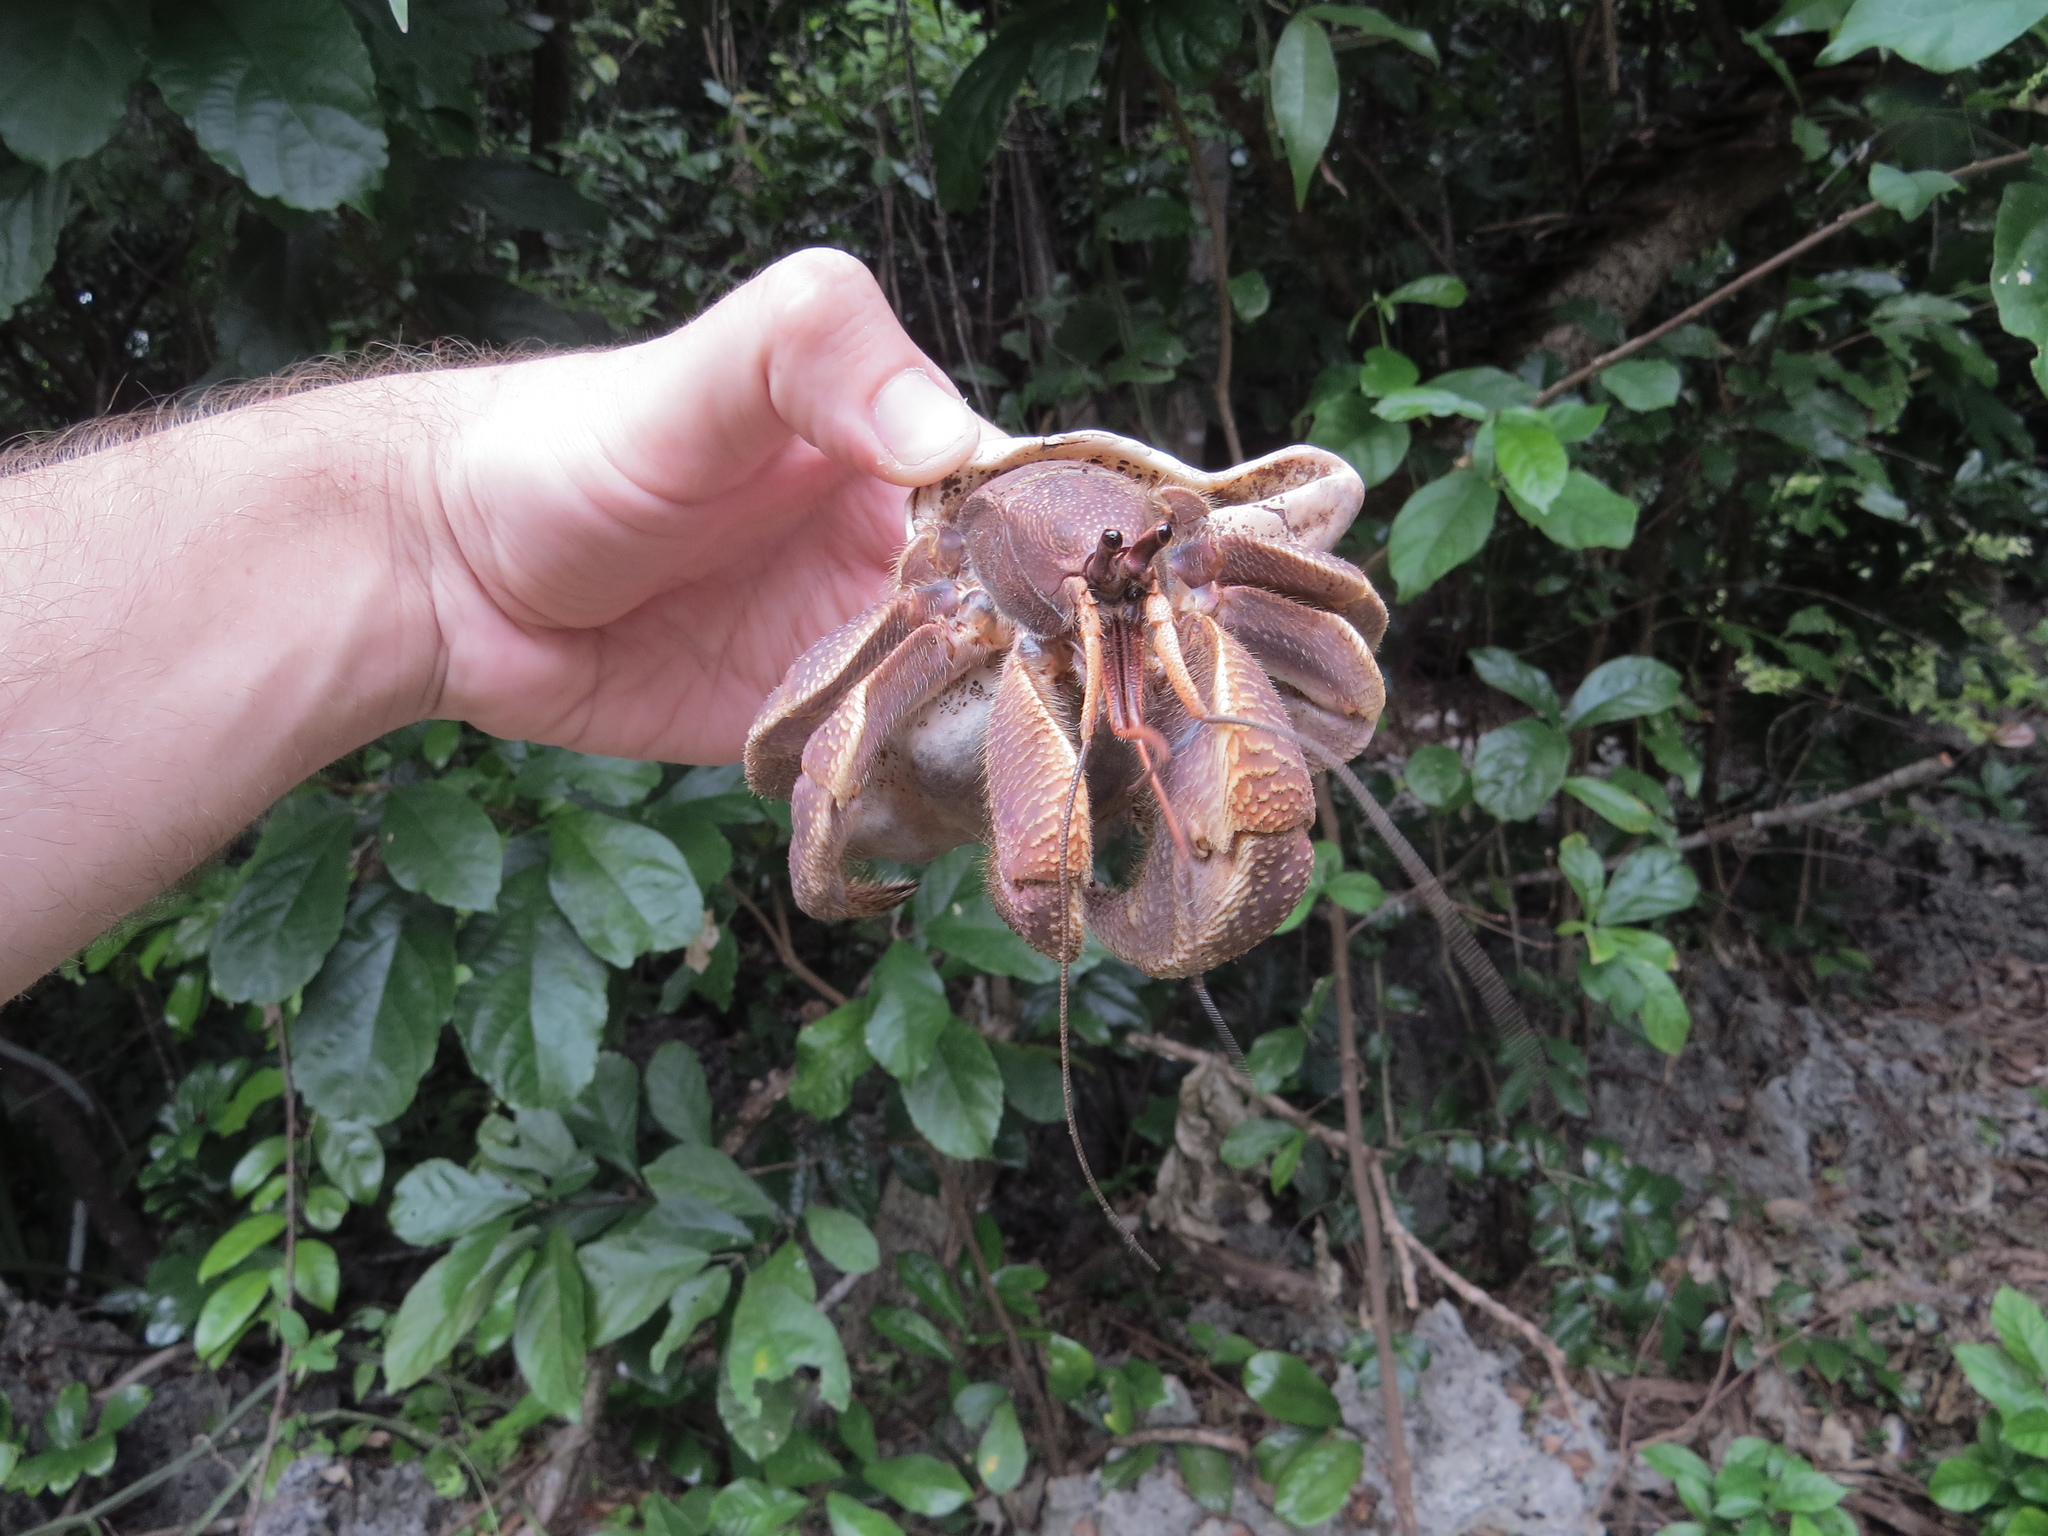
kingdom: Animalia
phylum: Arthropoda
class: Malacostraca
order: Decapoda
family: Coenobitidae
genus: Coenobita
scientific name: Coenobita brevimanus
